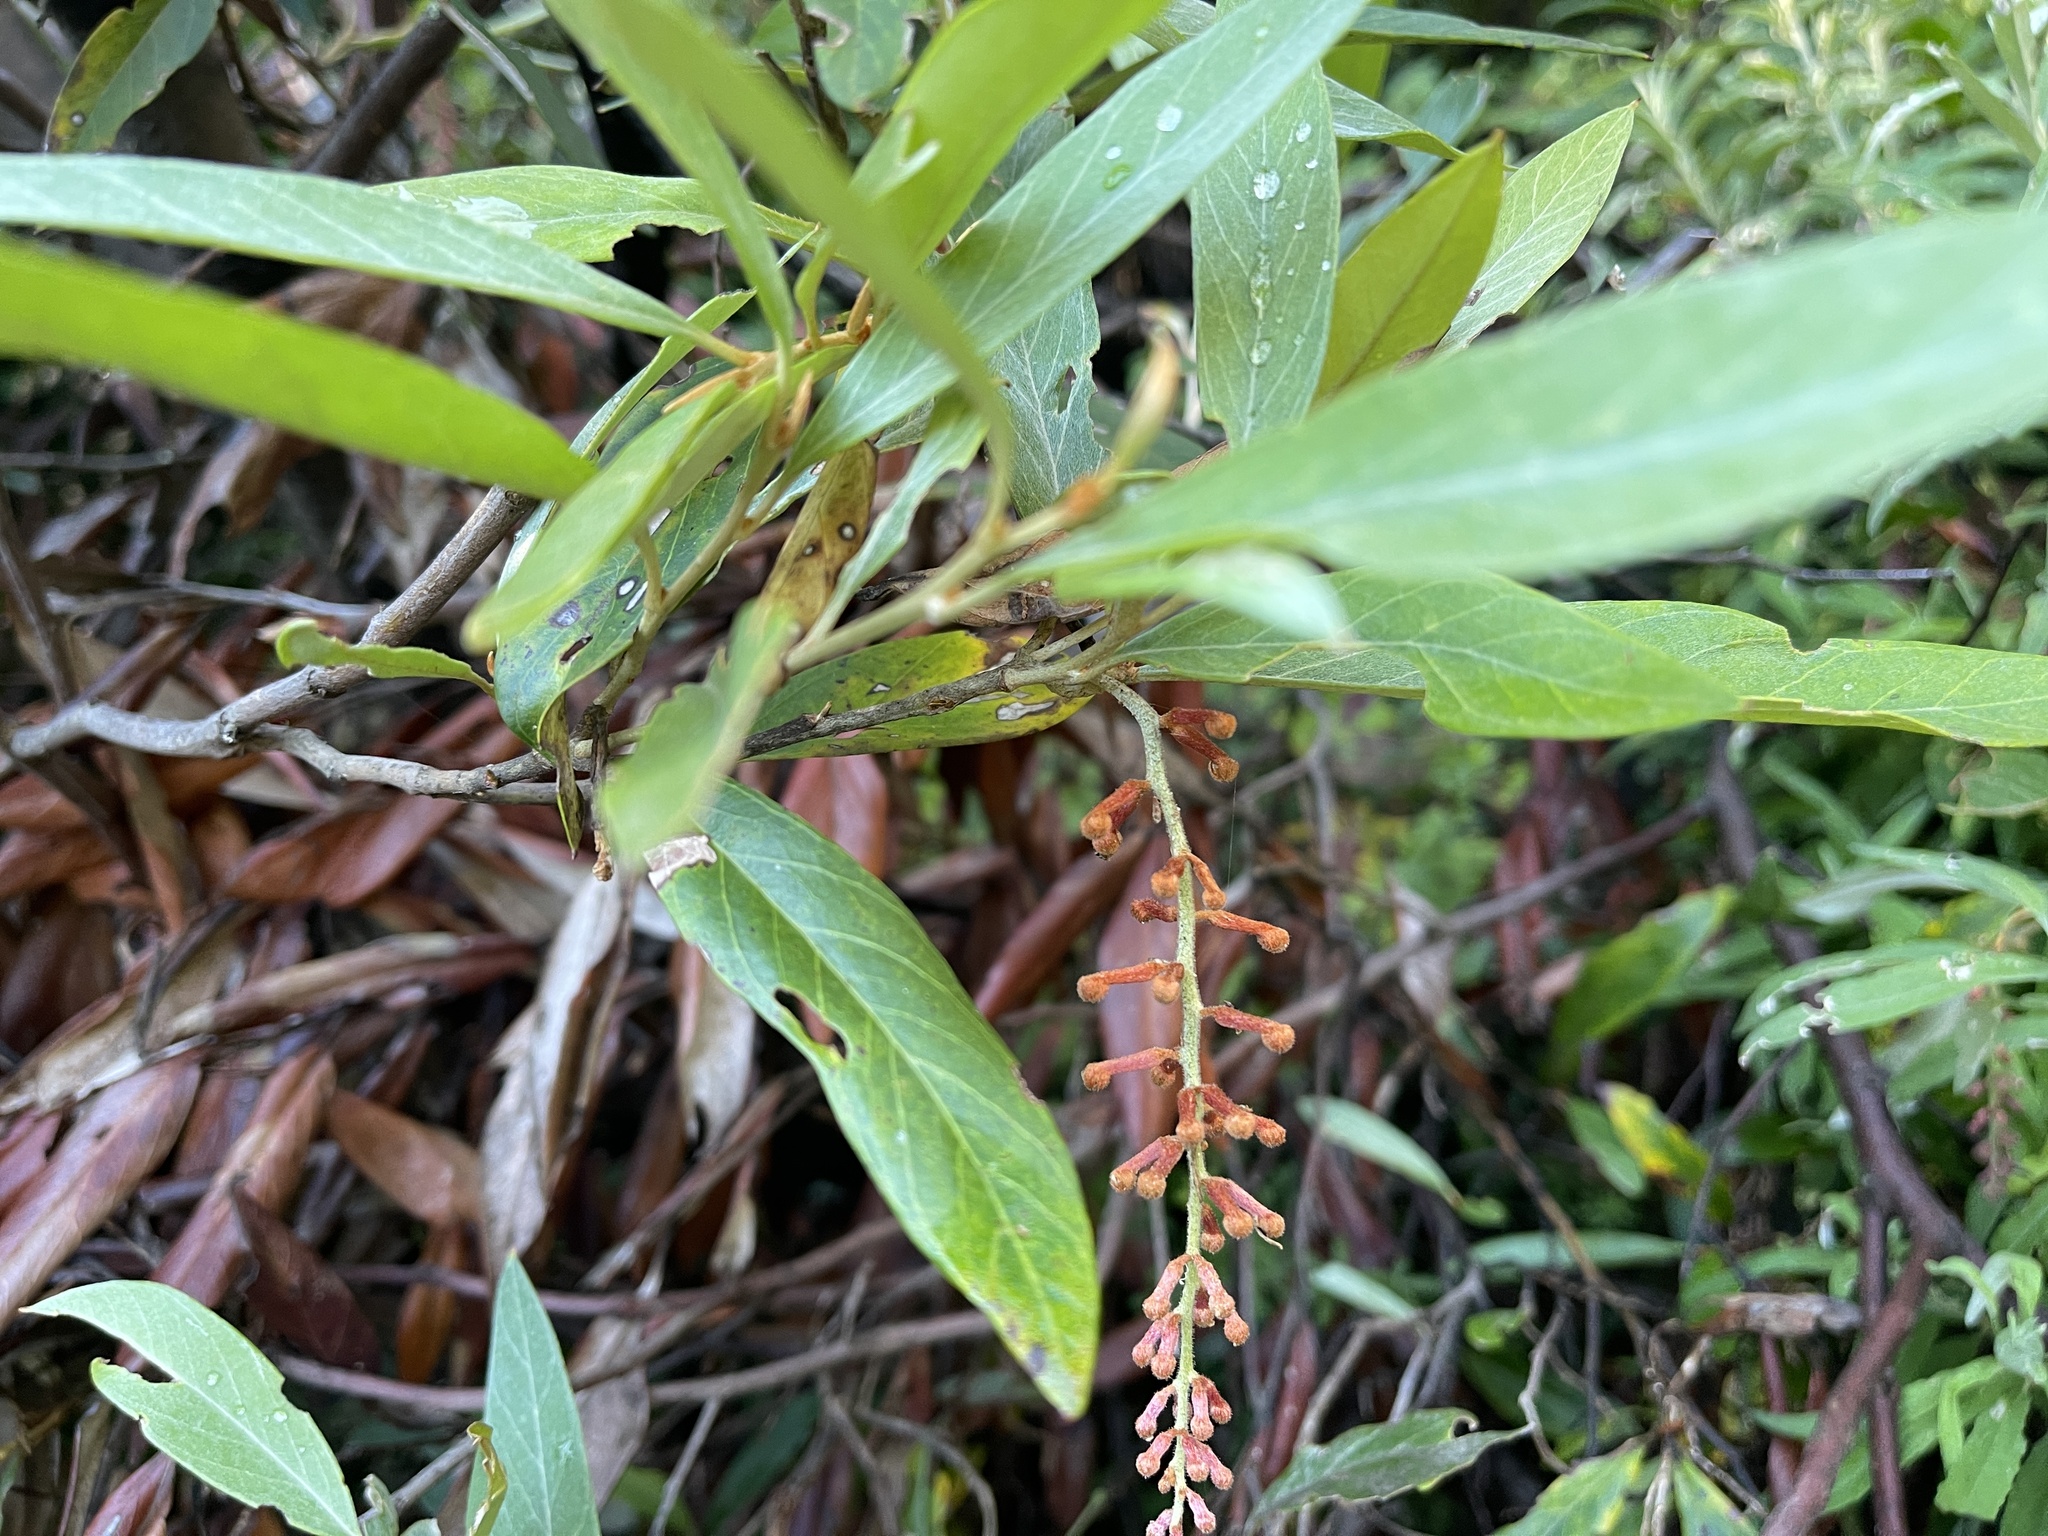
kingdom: Plantae
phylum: Tracheophyta
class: Magnoliopsida
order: Proteales
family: Proteaceae
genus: Grevillea
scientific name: Grevillea victoriae
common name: Royal grevillea
